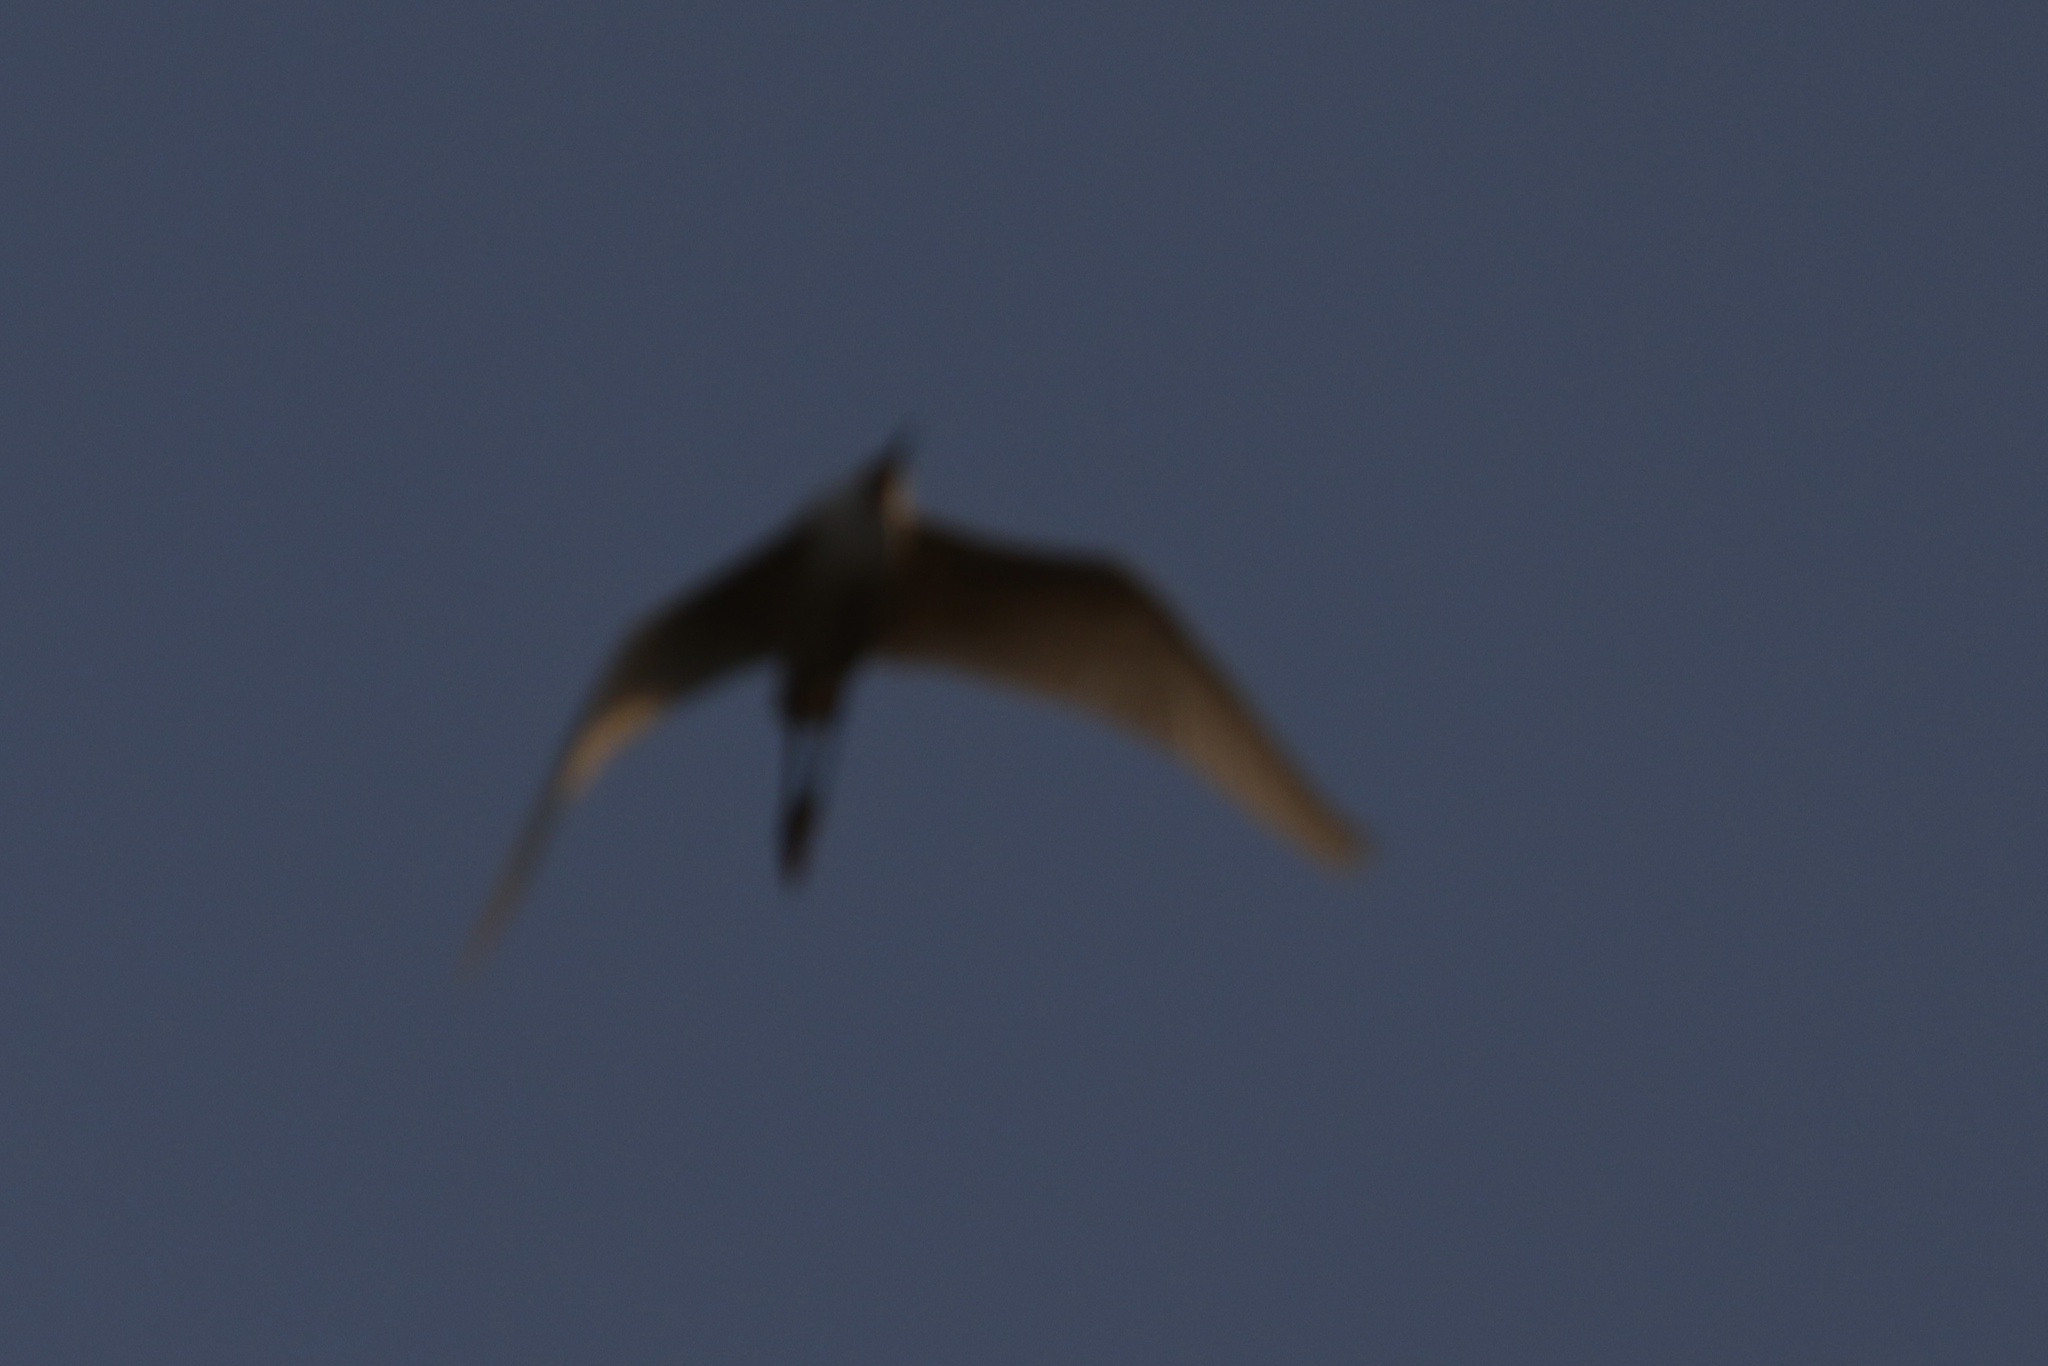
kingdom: Animalia
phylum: Chordata
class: Aves
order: Pelecaniformes
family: Ardeidae
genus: Egretta
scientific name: Egretta thula
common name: Snowy egret
